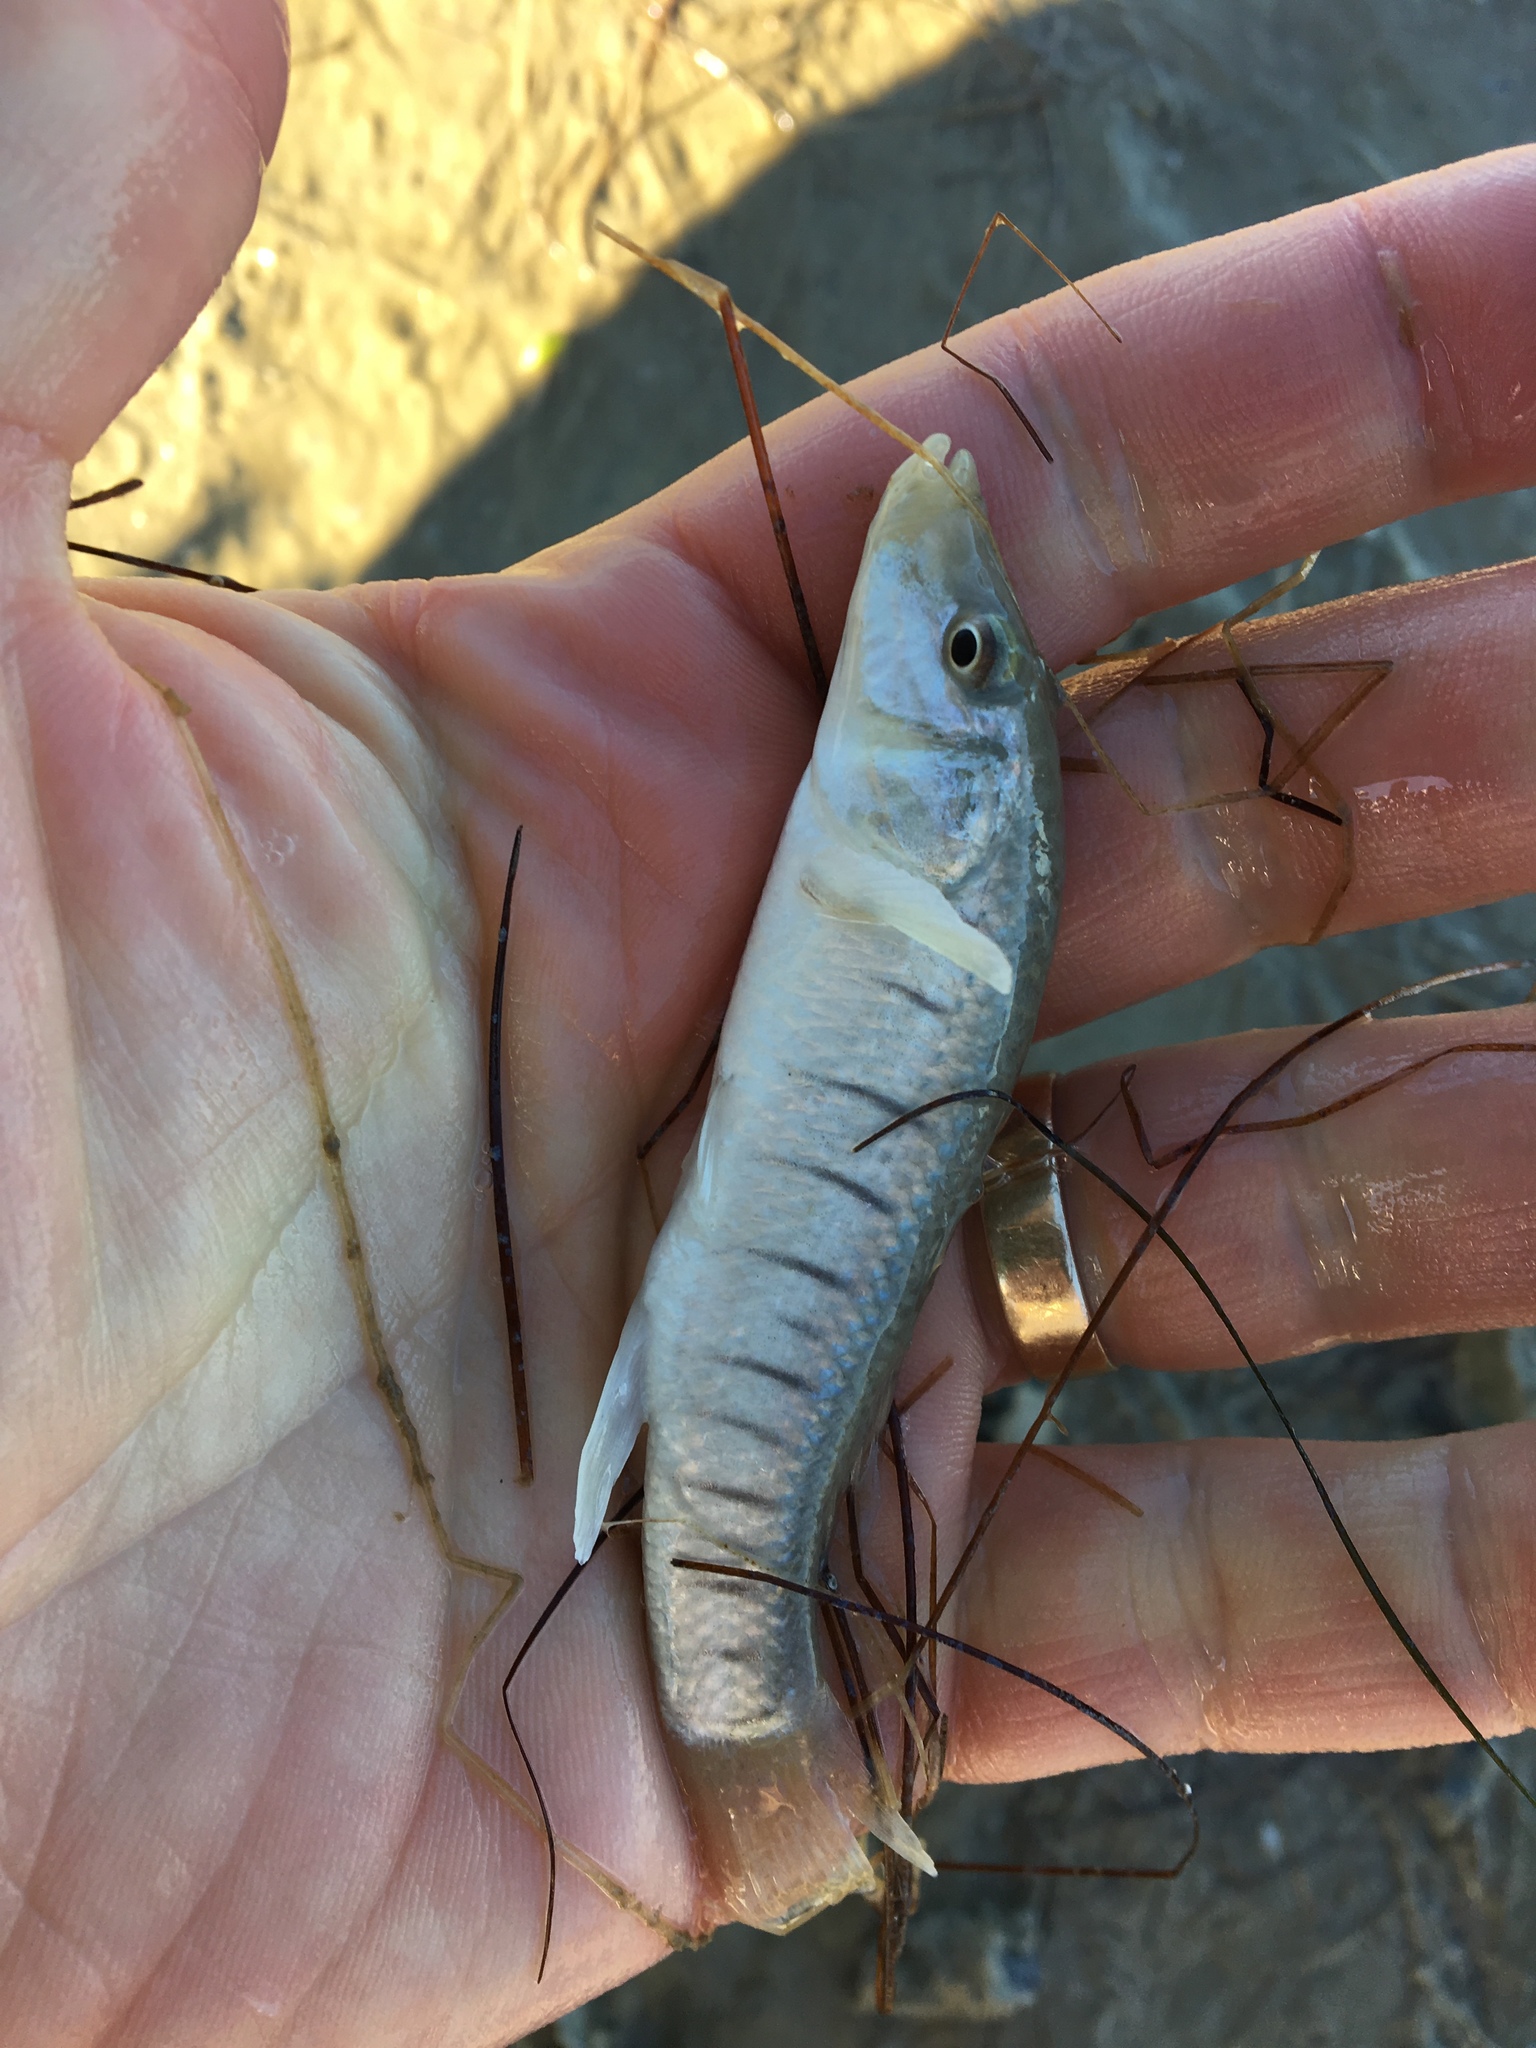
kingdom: Animalia
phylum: Chordata
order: Cyprinodontiformes
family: Fundulidae
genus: Fundulus
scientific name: Fundulus similis
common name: Longnose killifish
